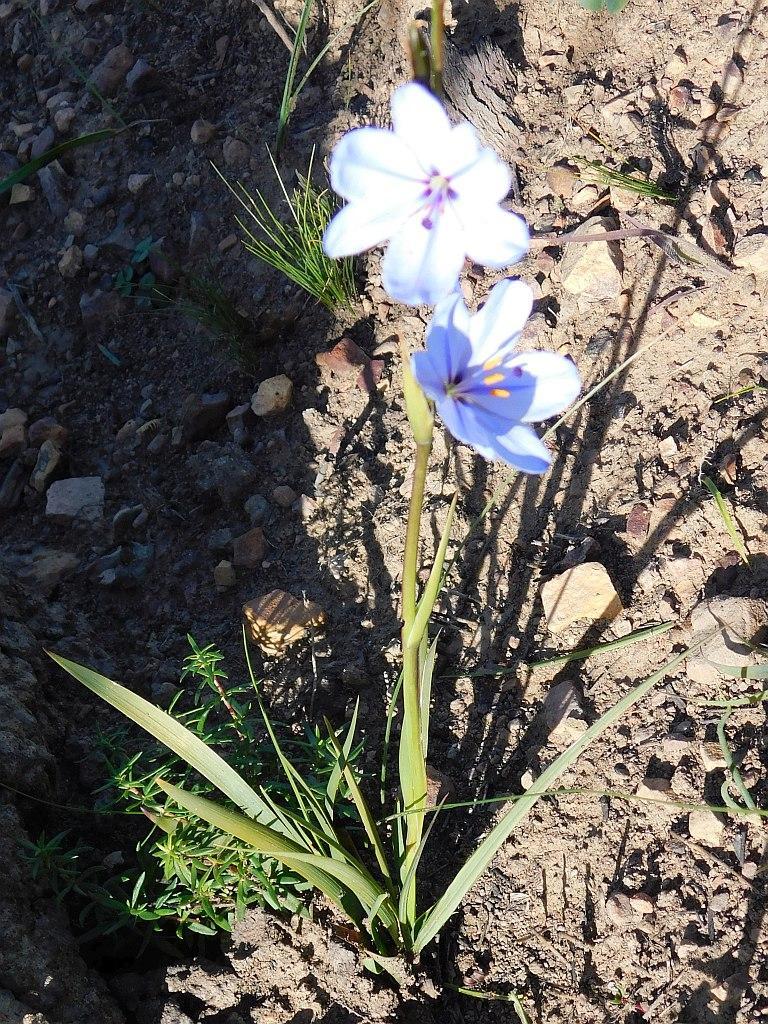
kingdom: Plantae
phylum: Tracheophyta
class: Liliopsida
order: Asparagales
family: Iridaceae
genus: Aristea
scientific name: Aristea spiralis
